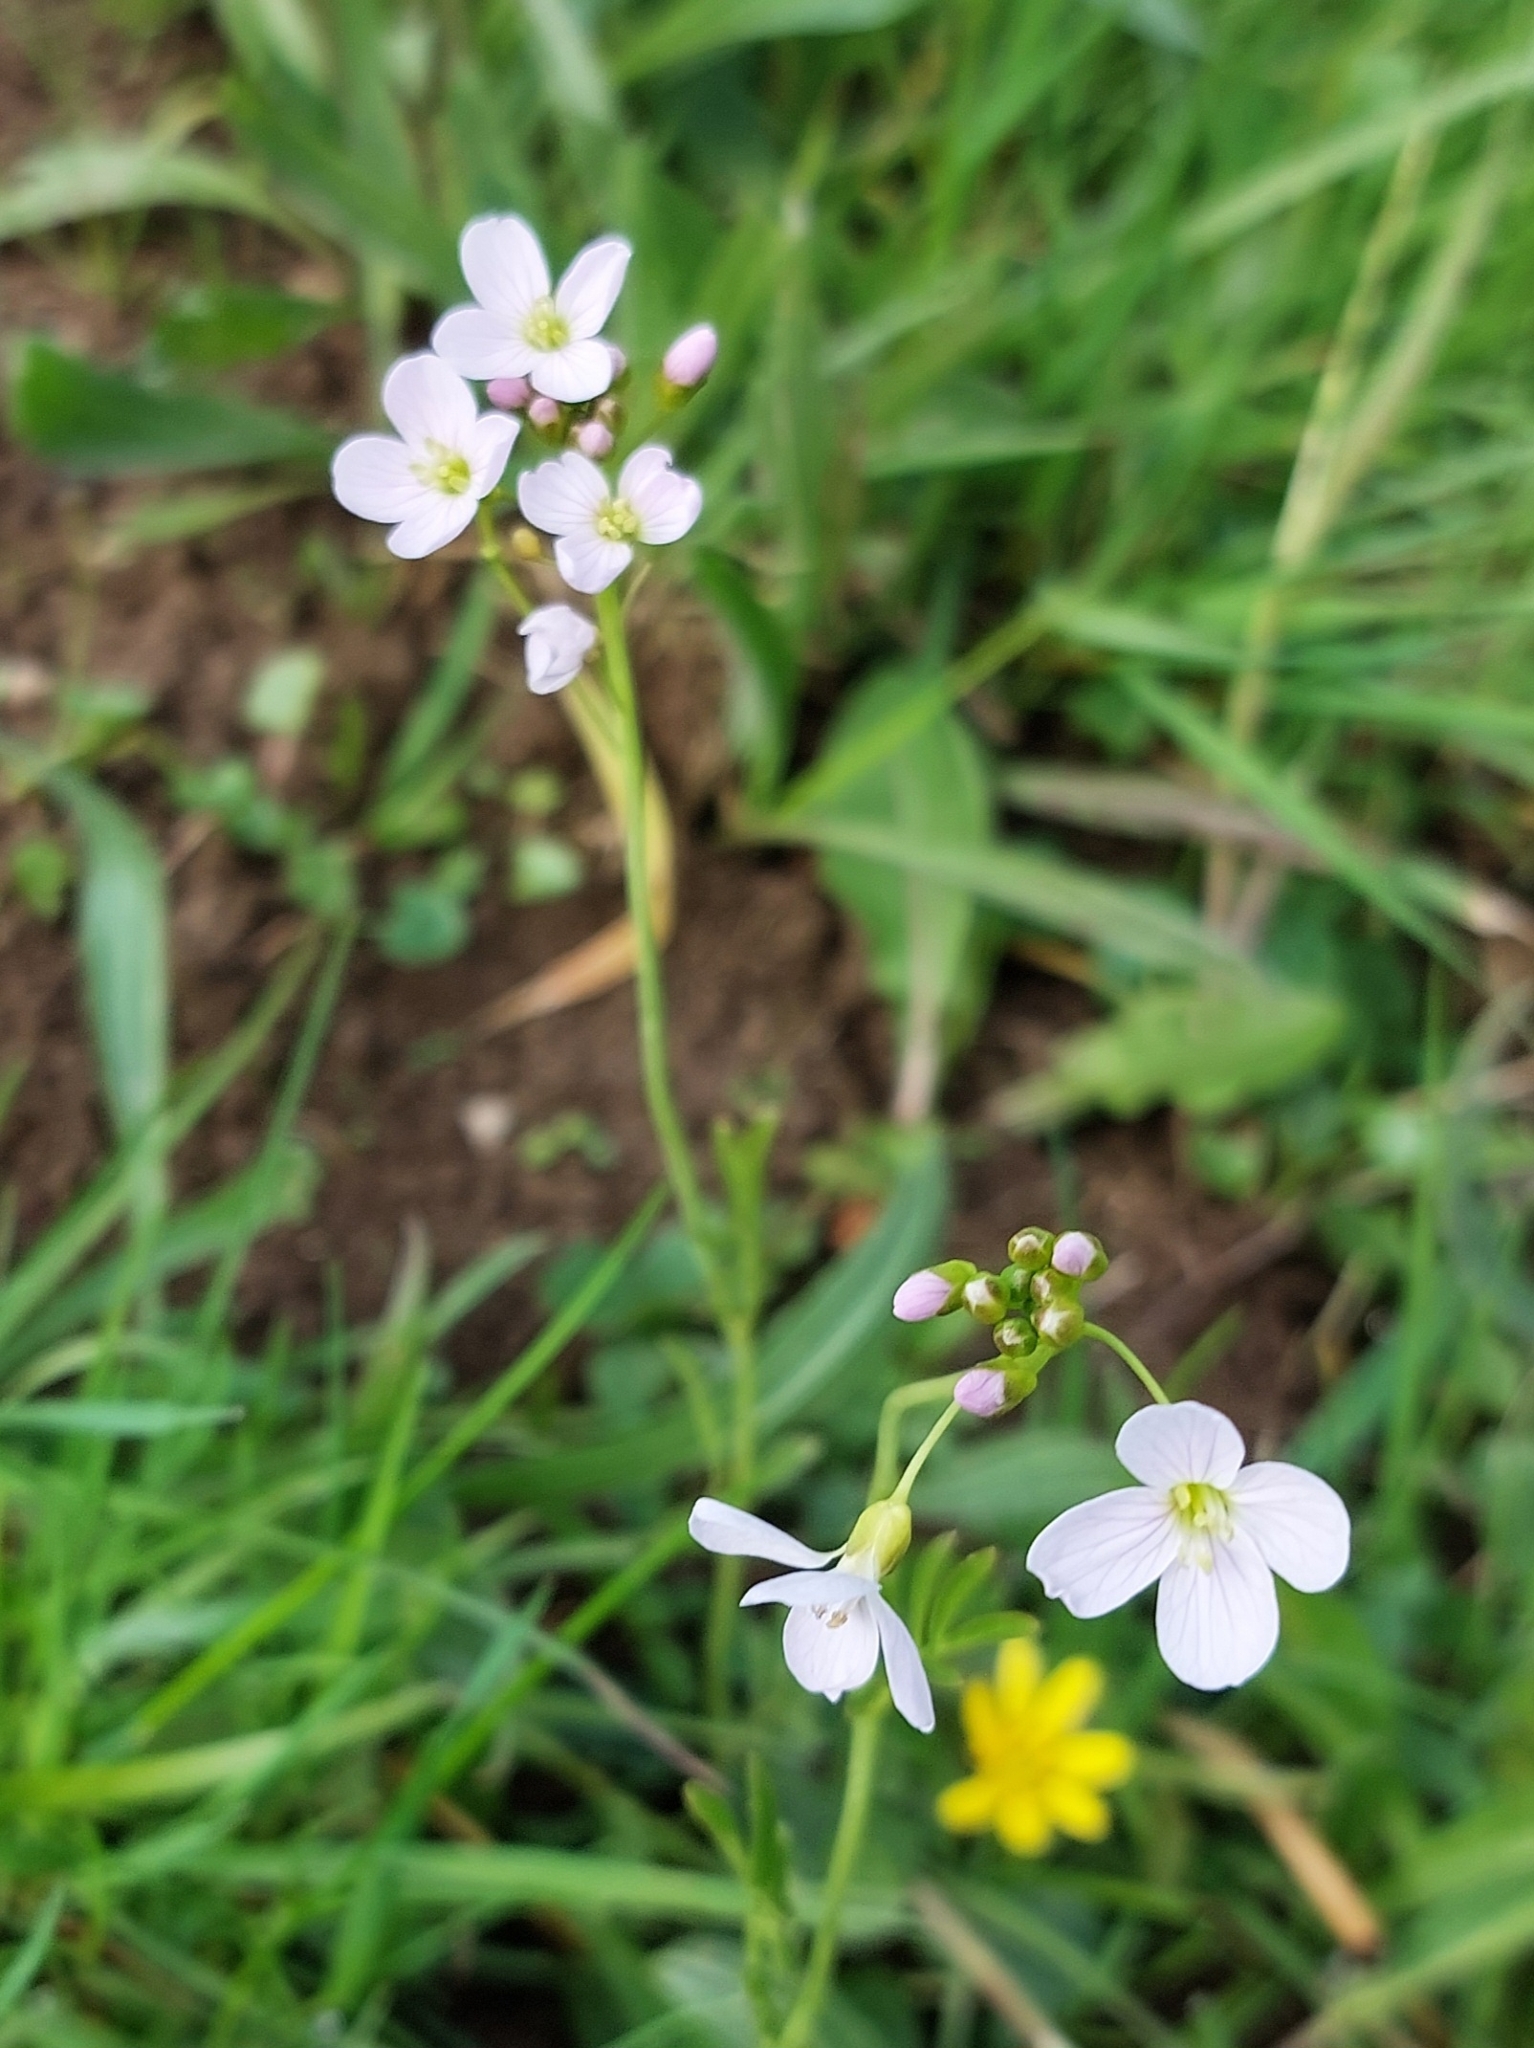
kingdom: Plantae
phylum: Tracheophyta
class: Magnoliopsida
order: Brassicales
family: Brassicaceae
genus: Cardamine
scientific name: Cardamine pratensis
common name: Cuckoo flower
